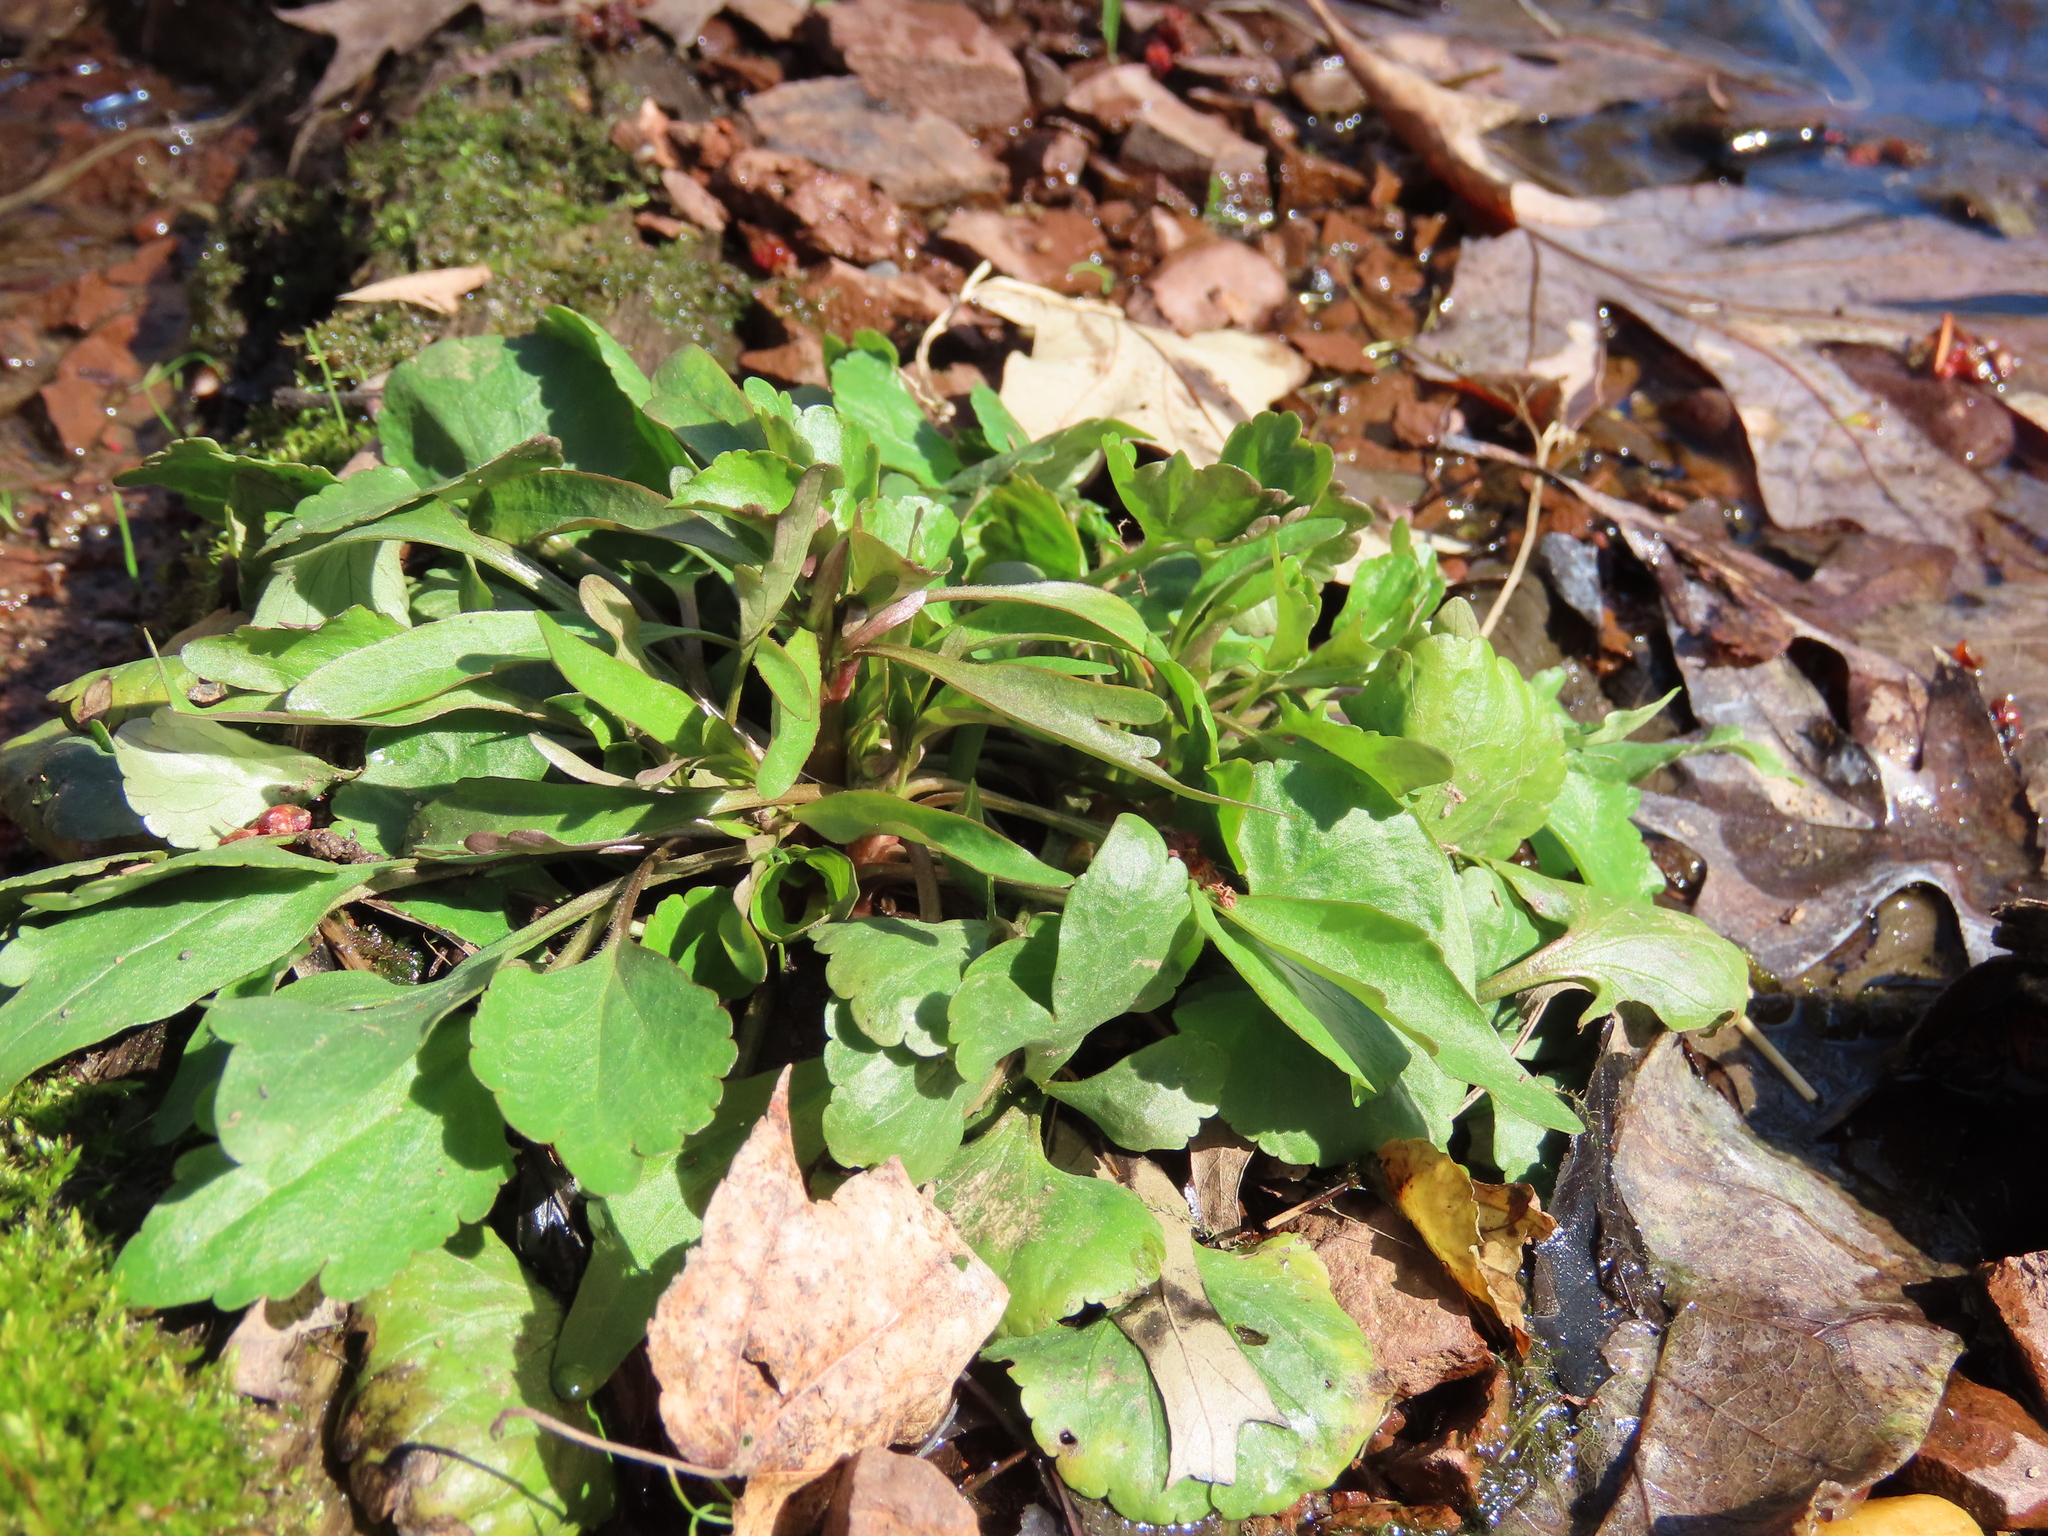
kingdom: Plantae
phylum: Tracheophyta
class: Magnoliopsida
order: Ranunculales
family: Ranunculaceae
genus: Ranunculus
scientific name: Ranunculus abortivus
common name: Early wood buttercup
